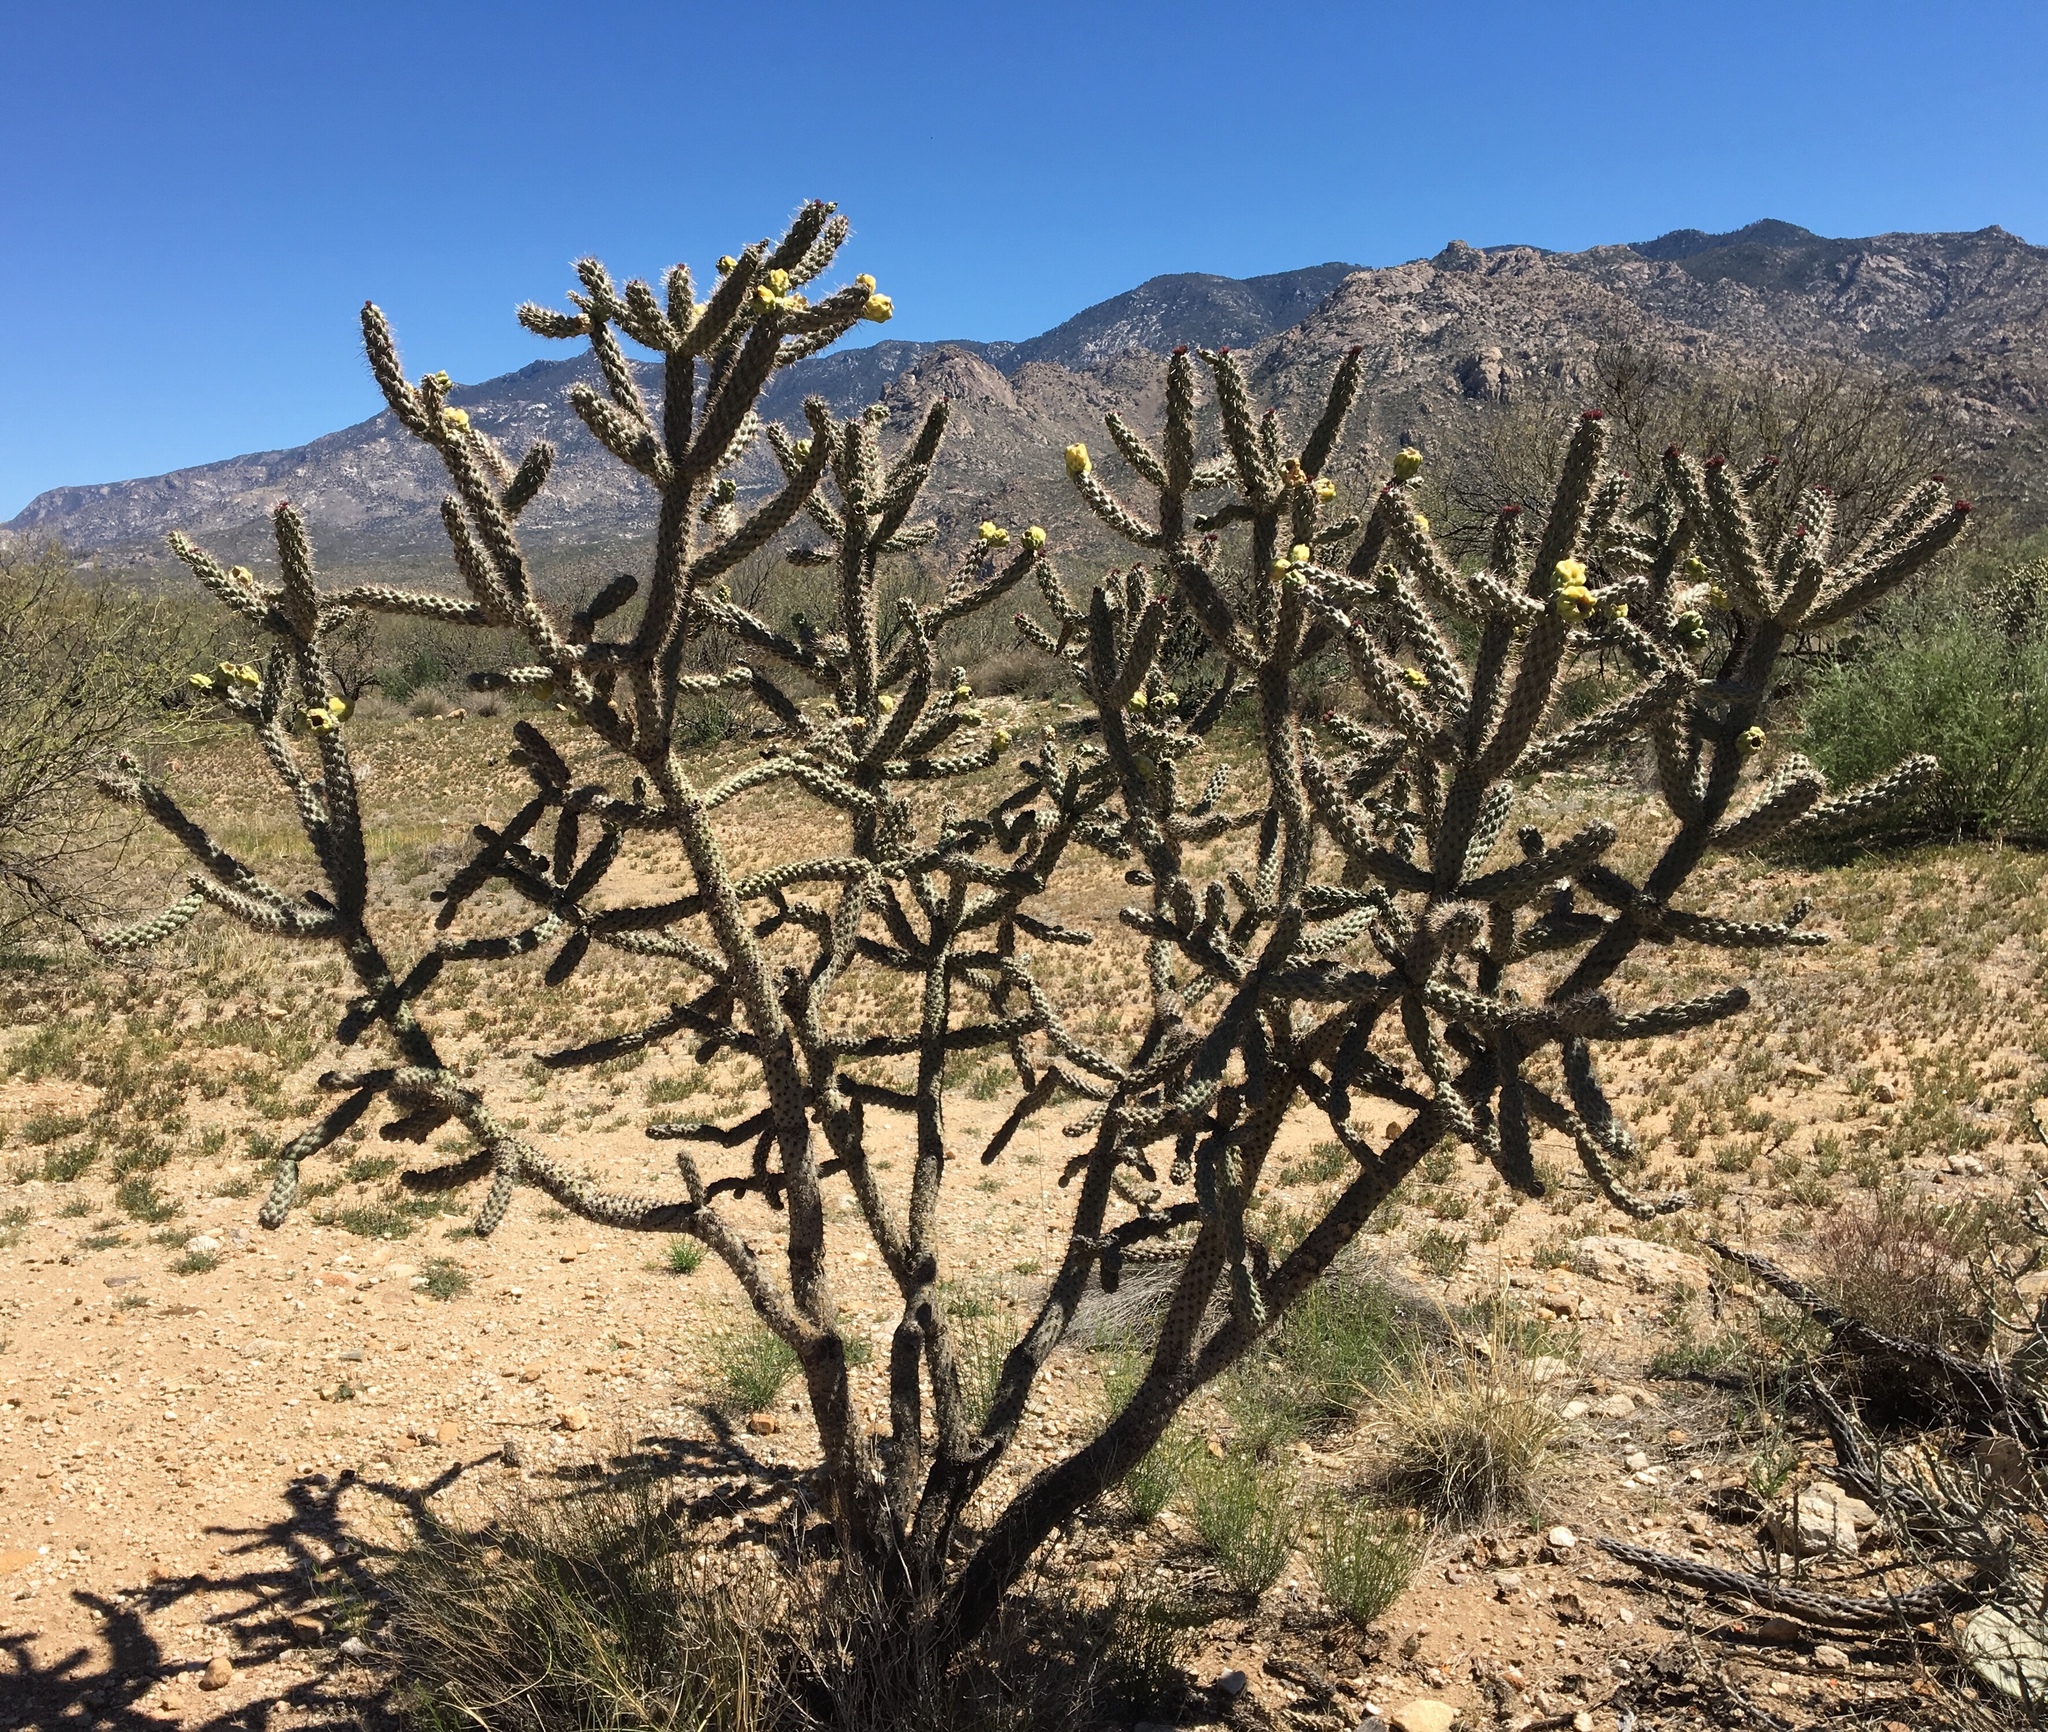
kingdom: Plantae
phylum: Tracheophyta
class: Magnoliopsida
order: Caryophyllales
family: Cactaceae
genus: Cylindropuntia
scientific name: Cylindropuntia imbricata
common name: Candelabrum cactus
